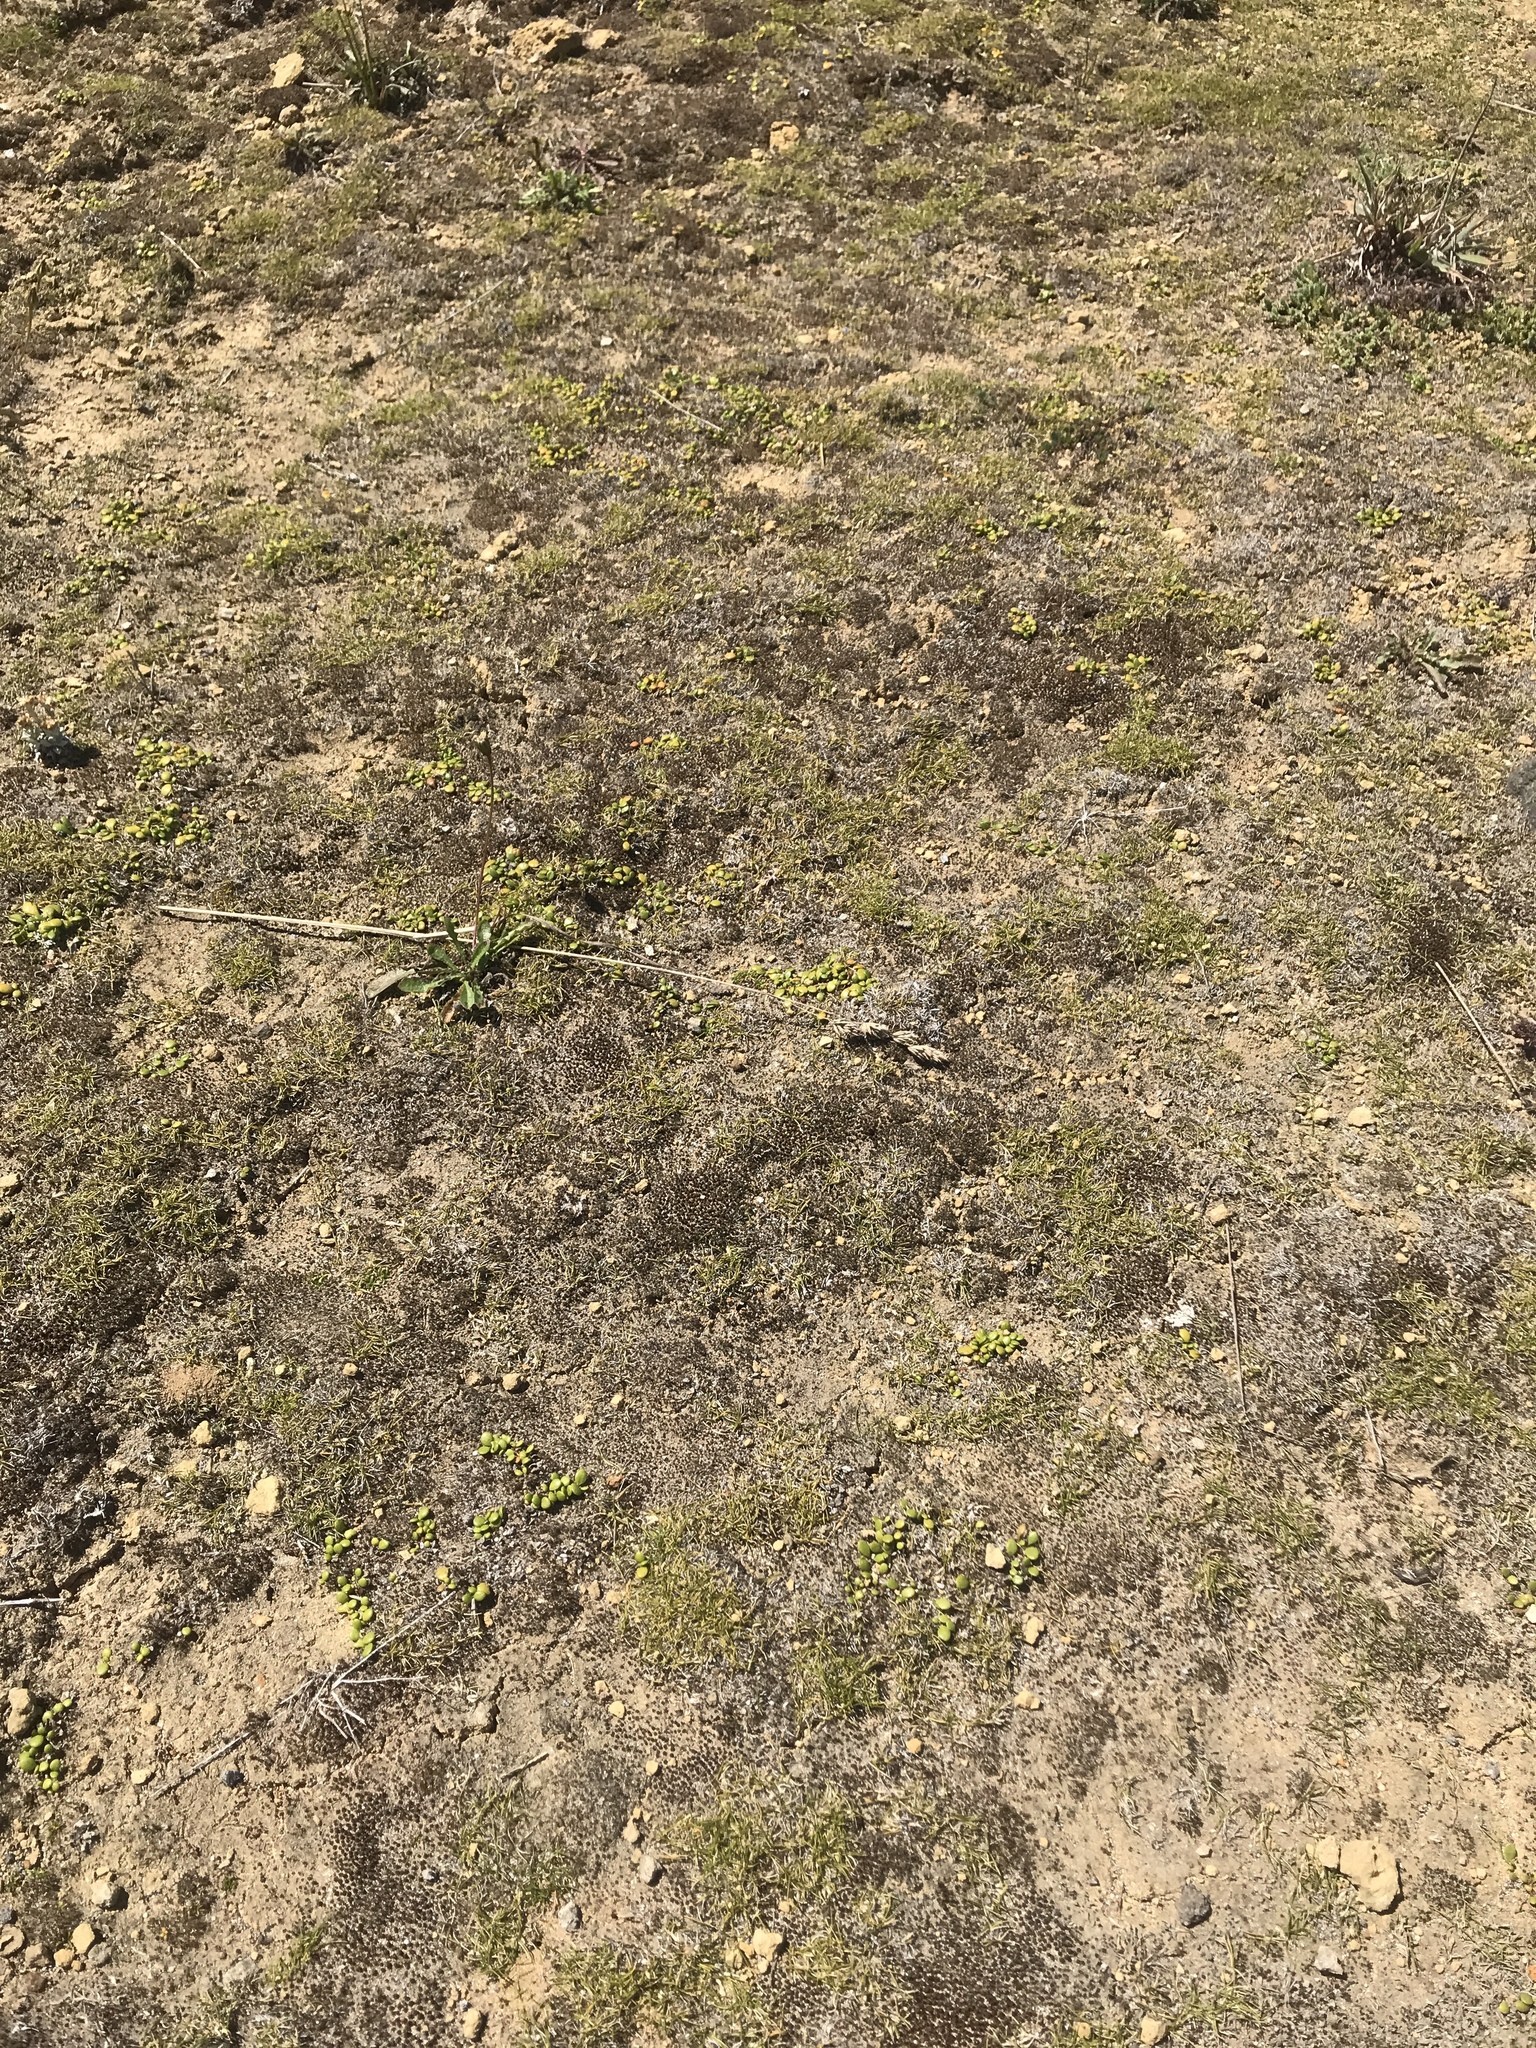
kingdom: Plantae
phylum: Tracheophyta
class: Liliopsida
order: Poales
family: Poaceae
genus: Zoysia
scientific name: Zoysia minima
